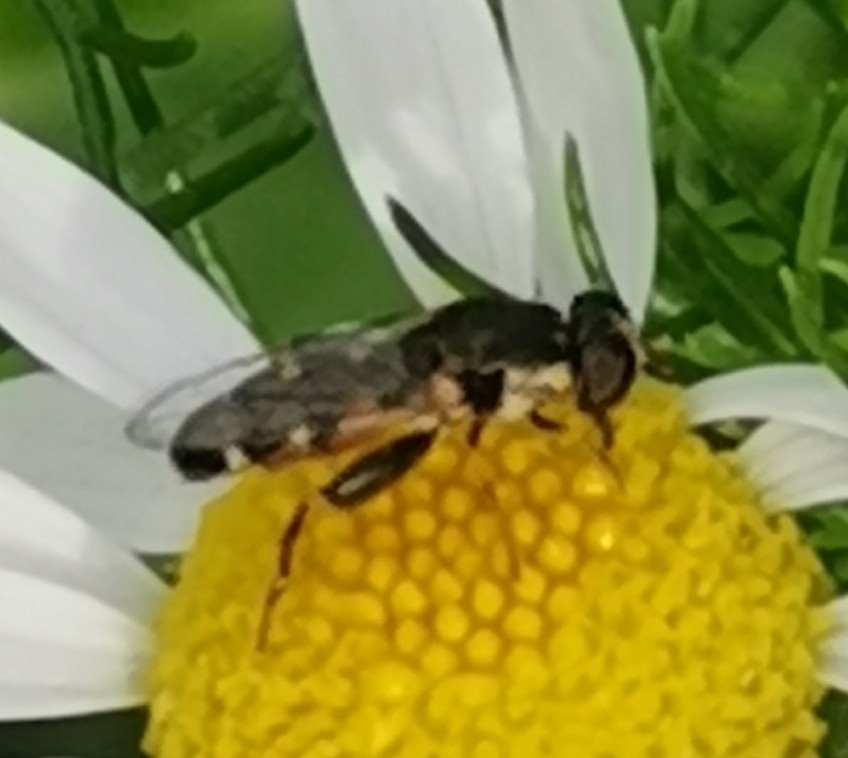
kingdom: Animalia
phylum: Arthropoda
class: Insecta
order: Diptera
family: Syrphidae
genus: Syritta
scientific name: Syritta pipiens
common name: Hover fly
